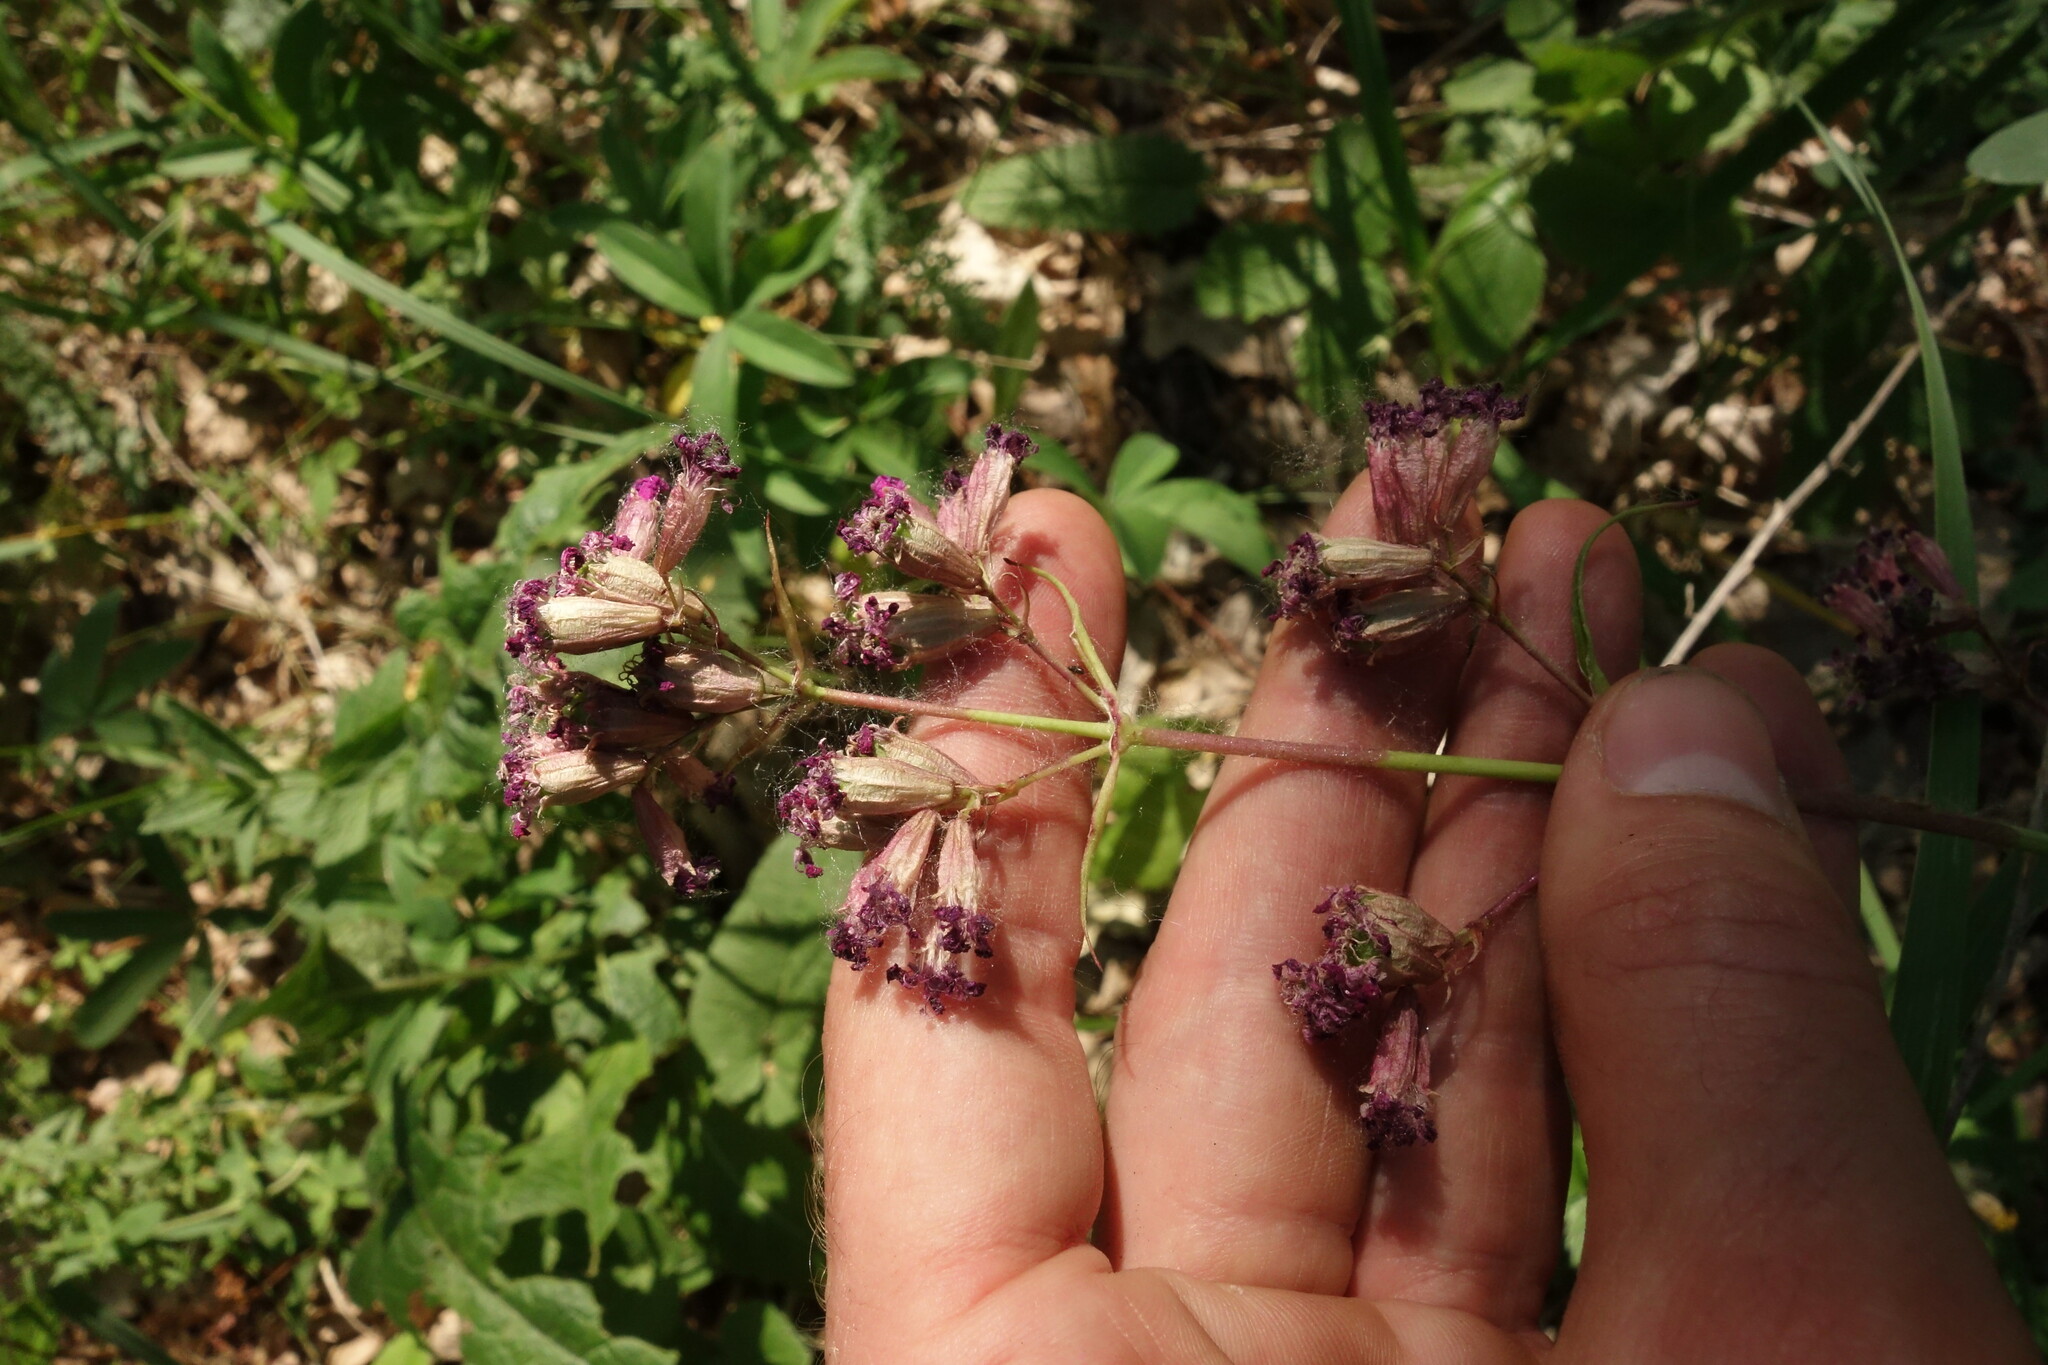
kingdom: Plantae
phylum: Tracheophyta
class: Magnoliopsida
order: Caryophyllales
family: Caryophyllaceae
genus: Viscaria
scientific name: Viscaria vulgaris
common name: Clammy campion
